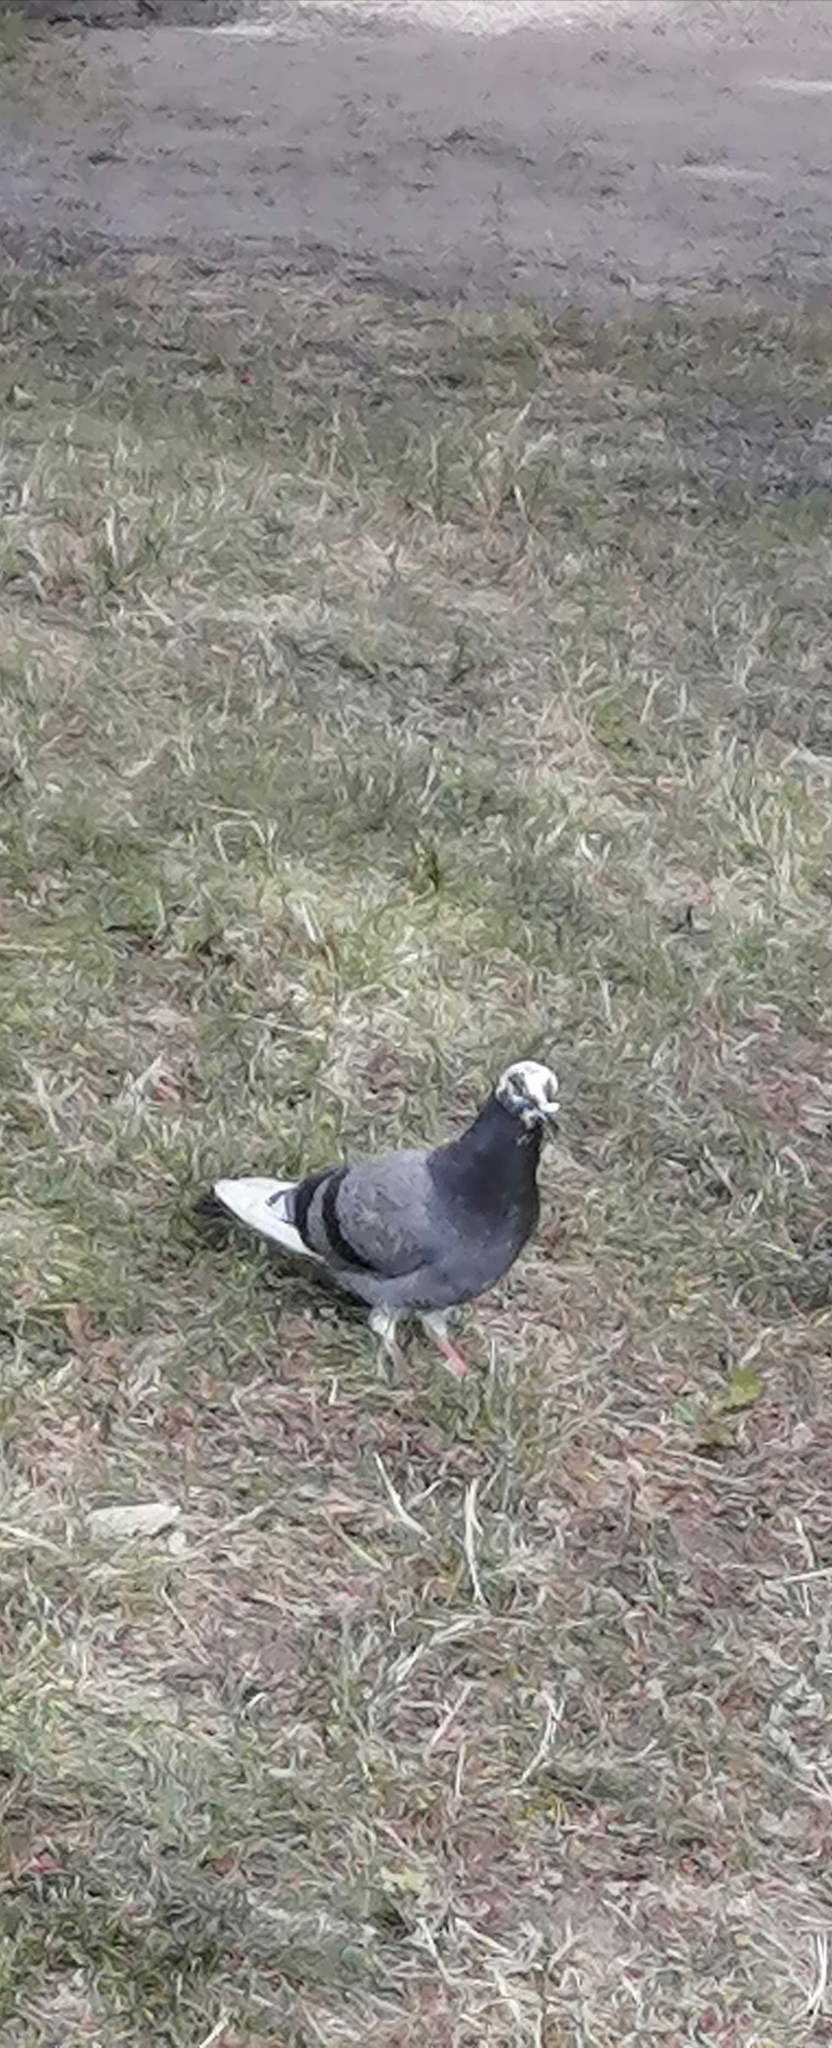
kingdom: Animalia
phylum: Chordata
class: Aves
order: Columbiformes
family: Columbidae
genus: Columba
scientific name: Columba livia
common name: Rock pigeon
